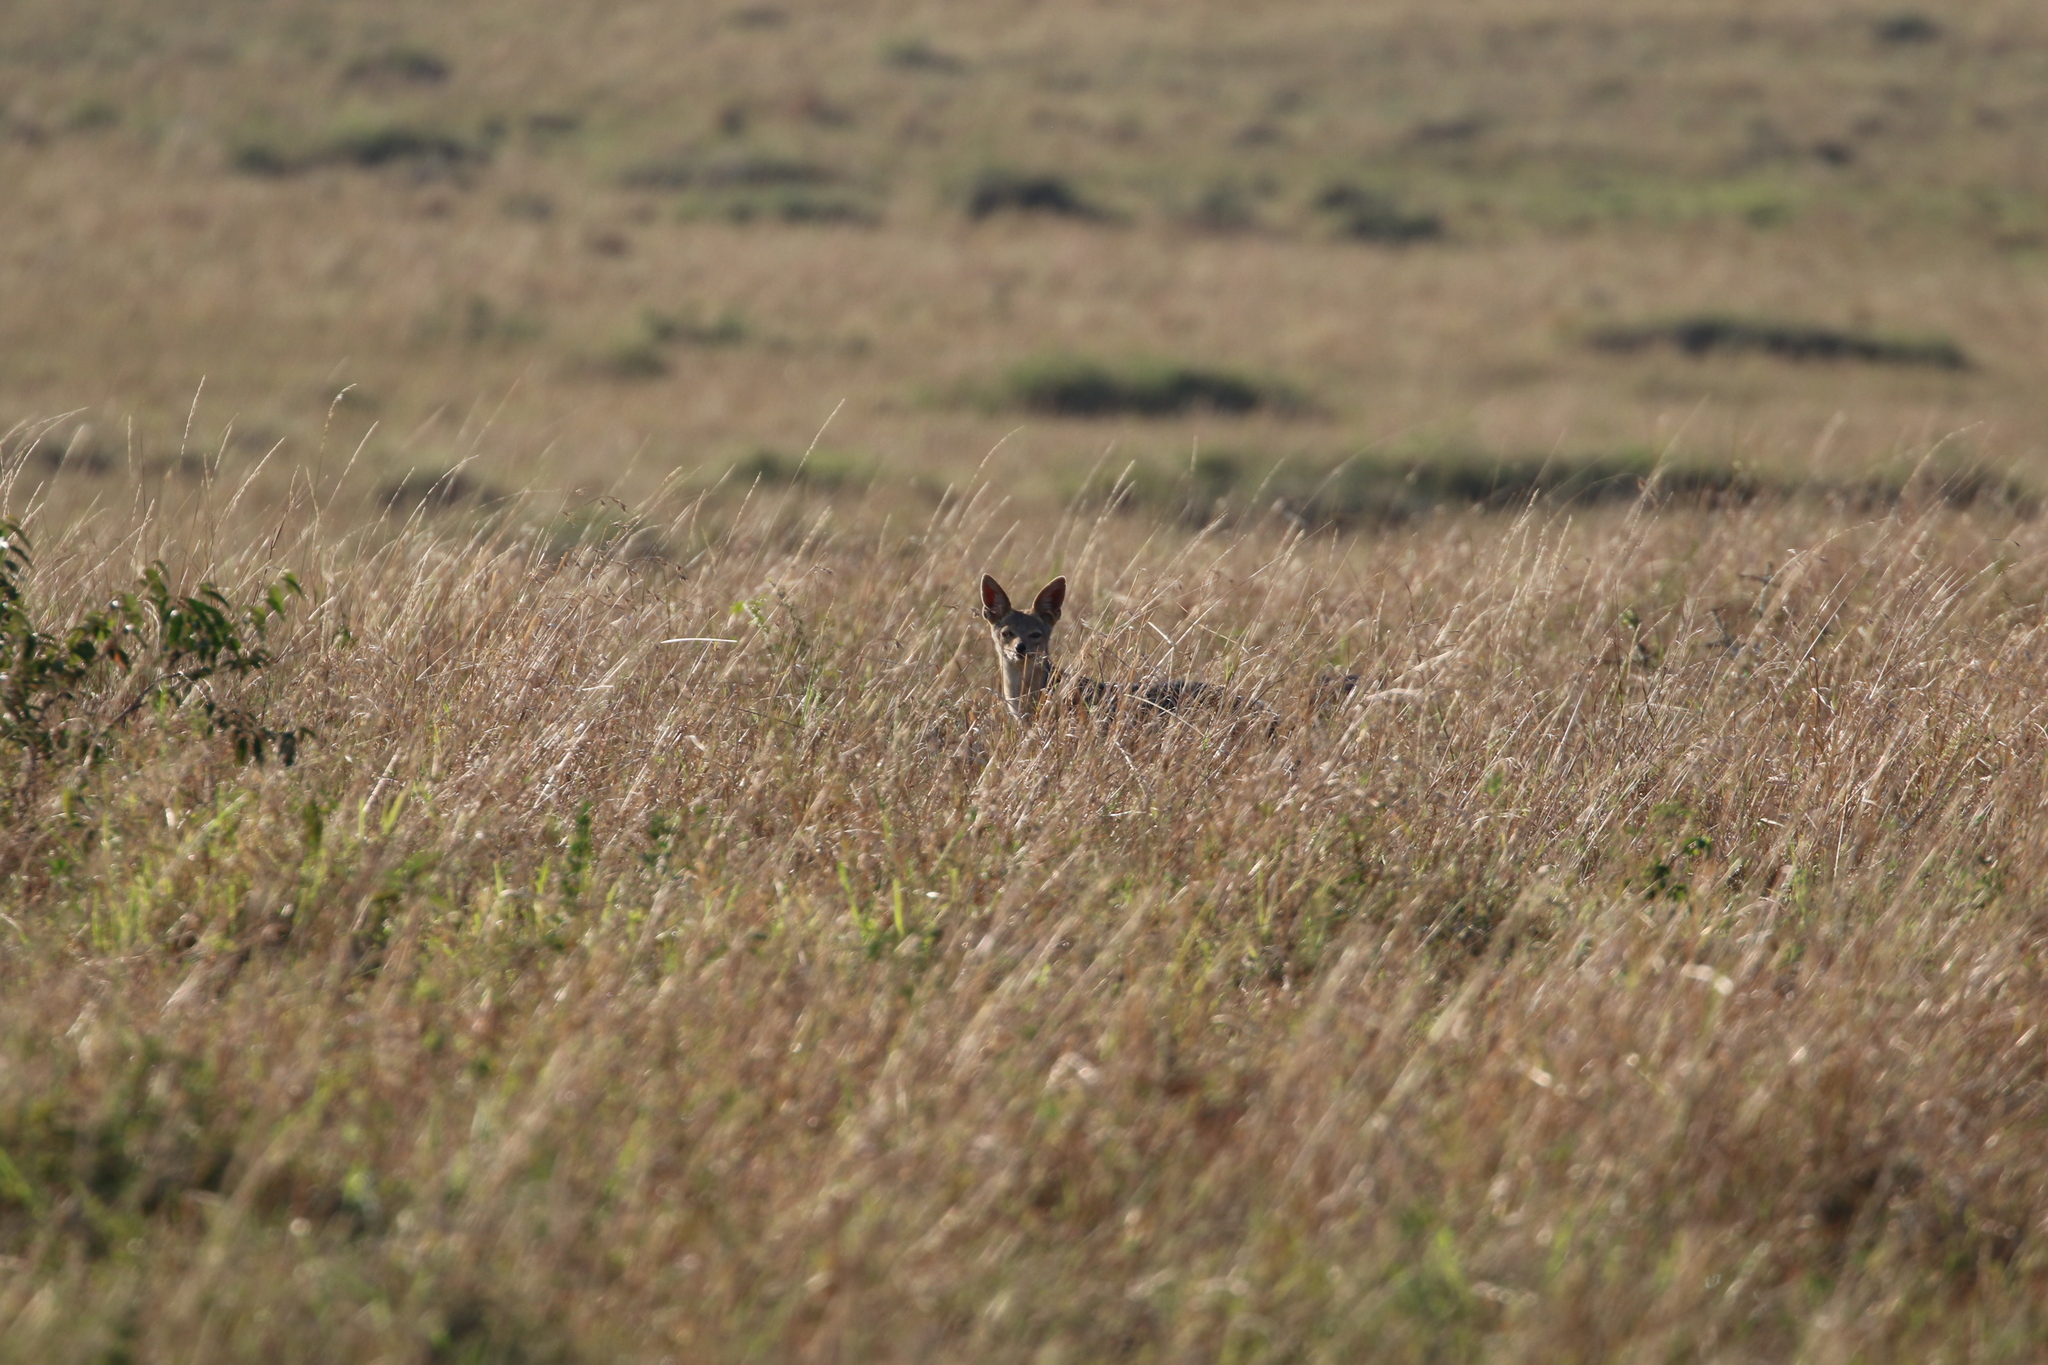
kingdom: Animalia
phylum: Chordata
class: Mammalia
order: Carnivora
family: Canidae
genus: Lupulella
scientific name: Lupulella
